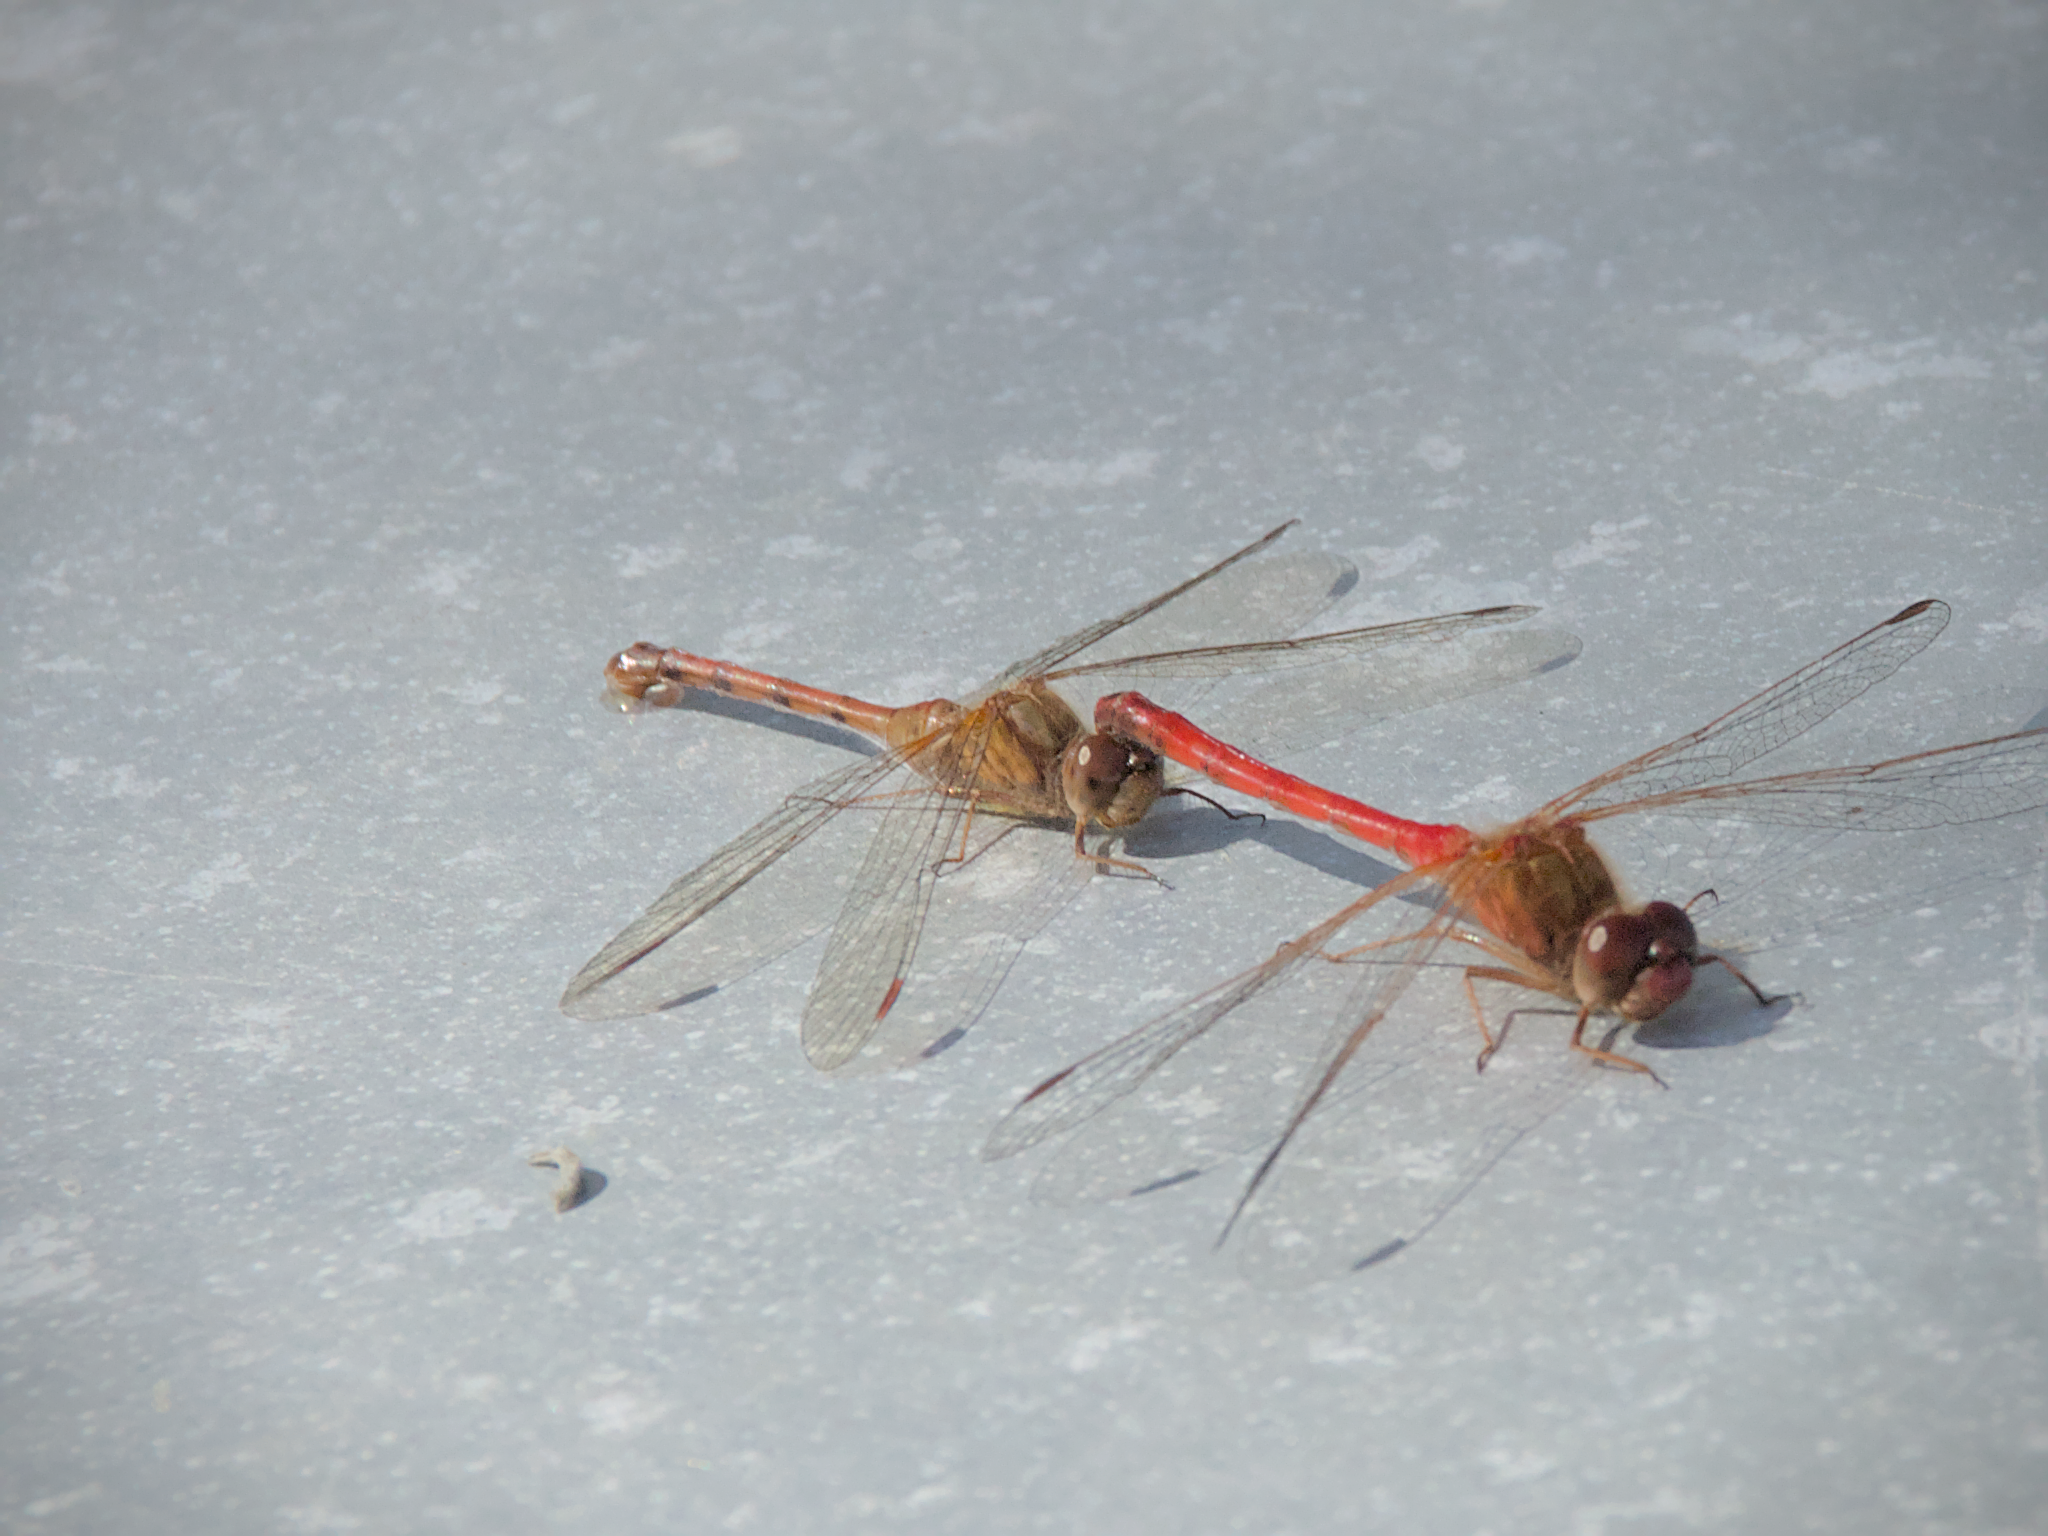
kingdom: Animalia
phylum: Arthropoda
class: Insecta
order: Odonata
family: Libellulidae
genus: Sympetrum
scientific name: Sympetrum vicinum
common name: Autumn meadowhawk
